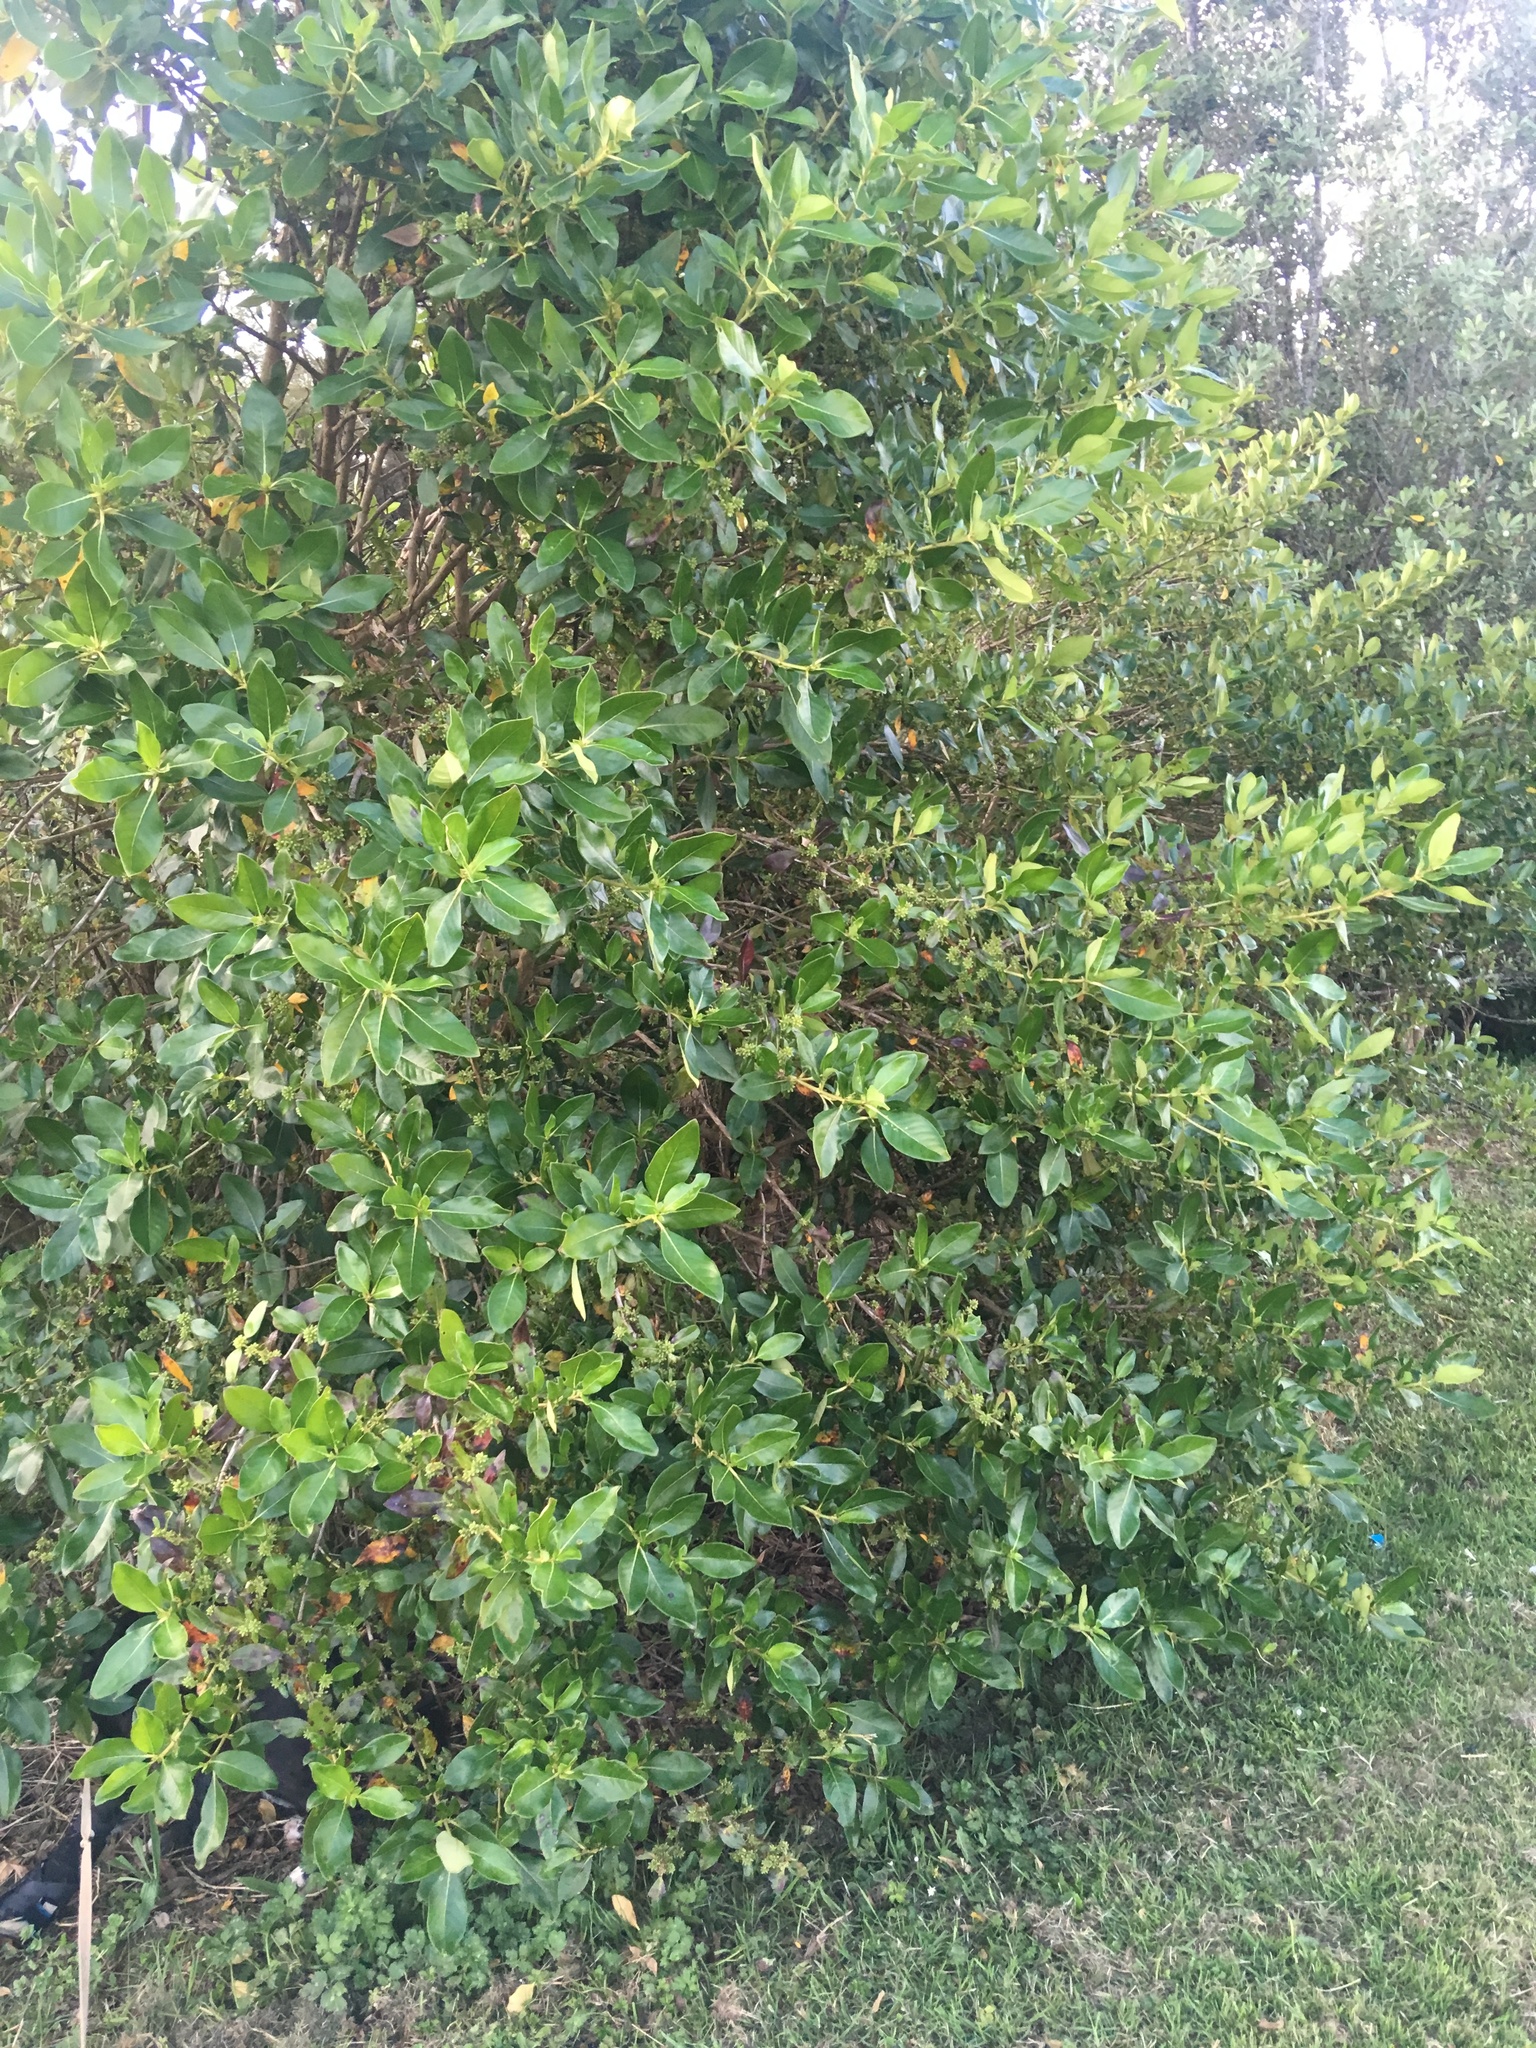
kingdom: Plantae
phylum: Tracheophyta
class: Magnoliopsida
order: Gentianales
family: Rubiaceae
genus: Coprosma
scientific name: Coprosma robusta
